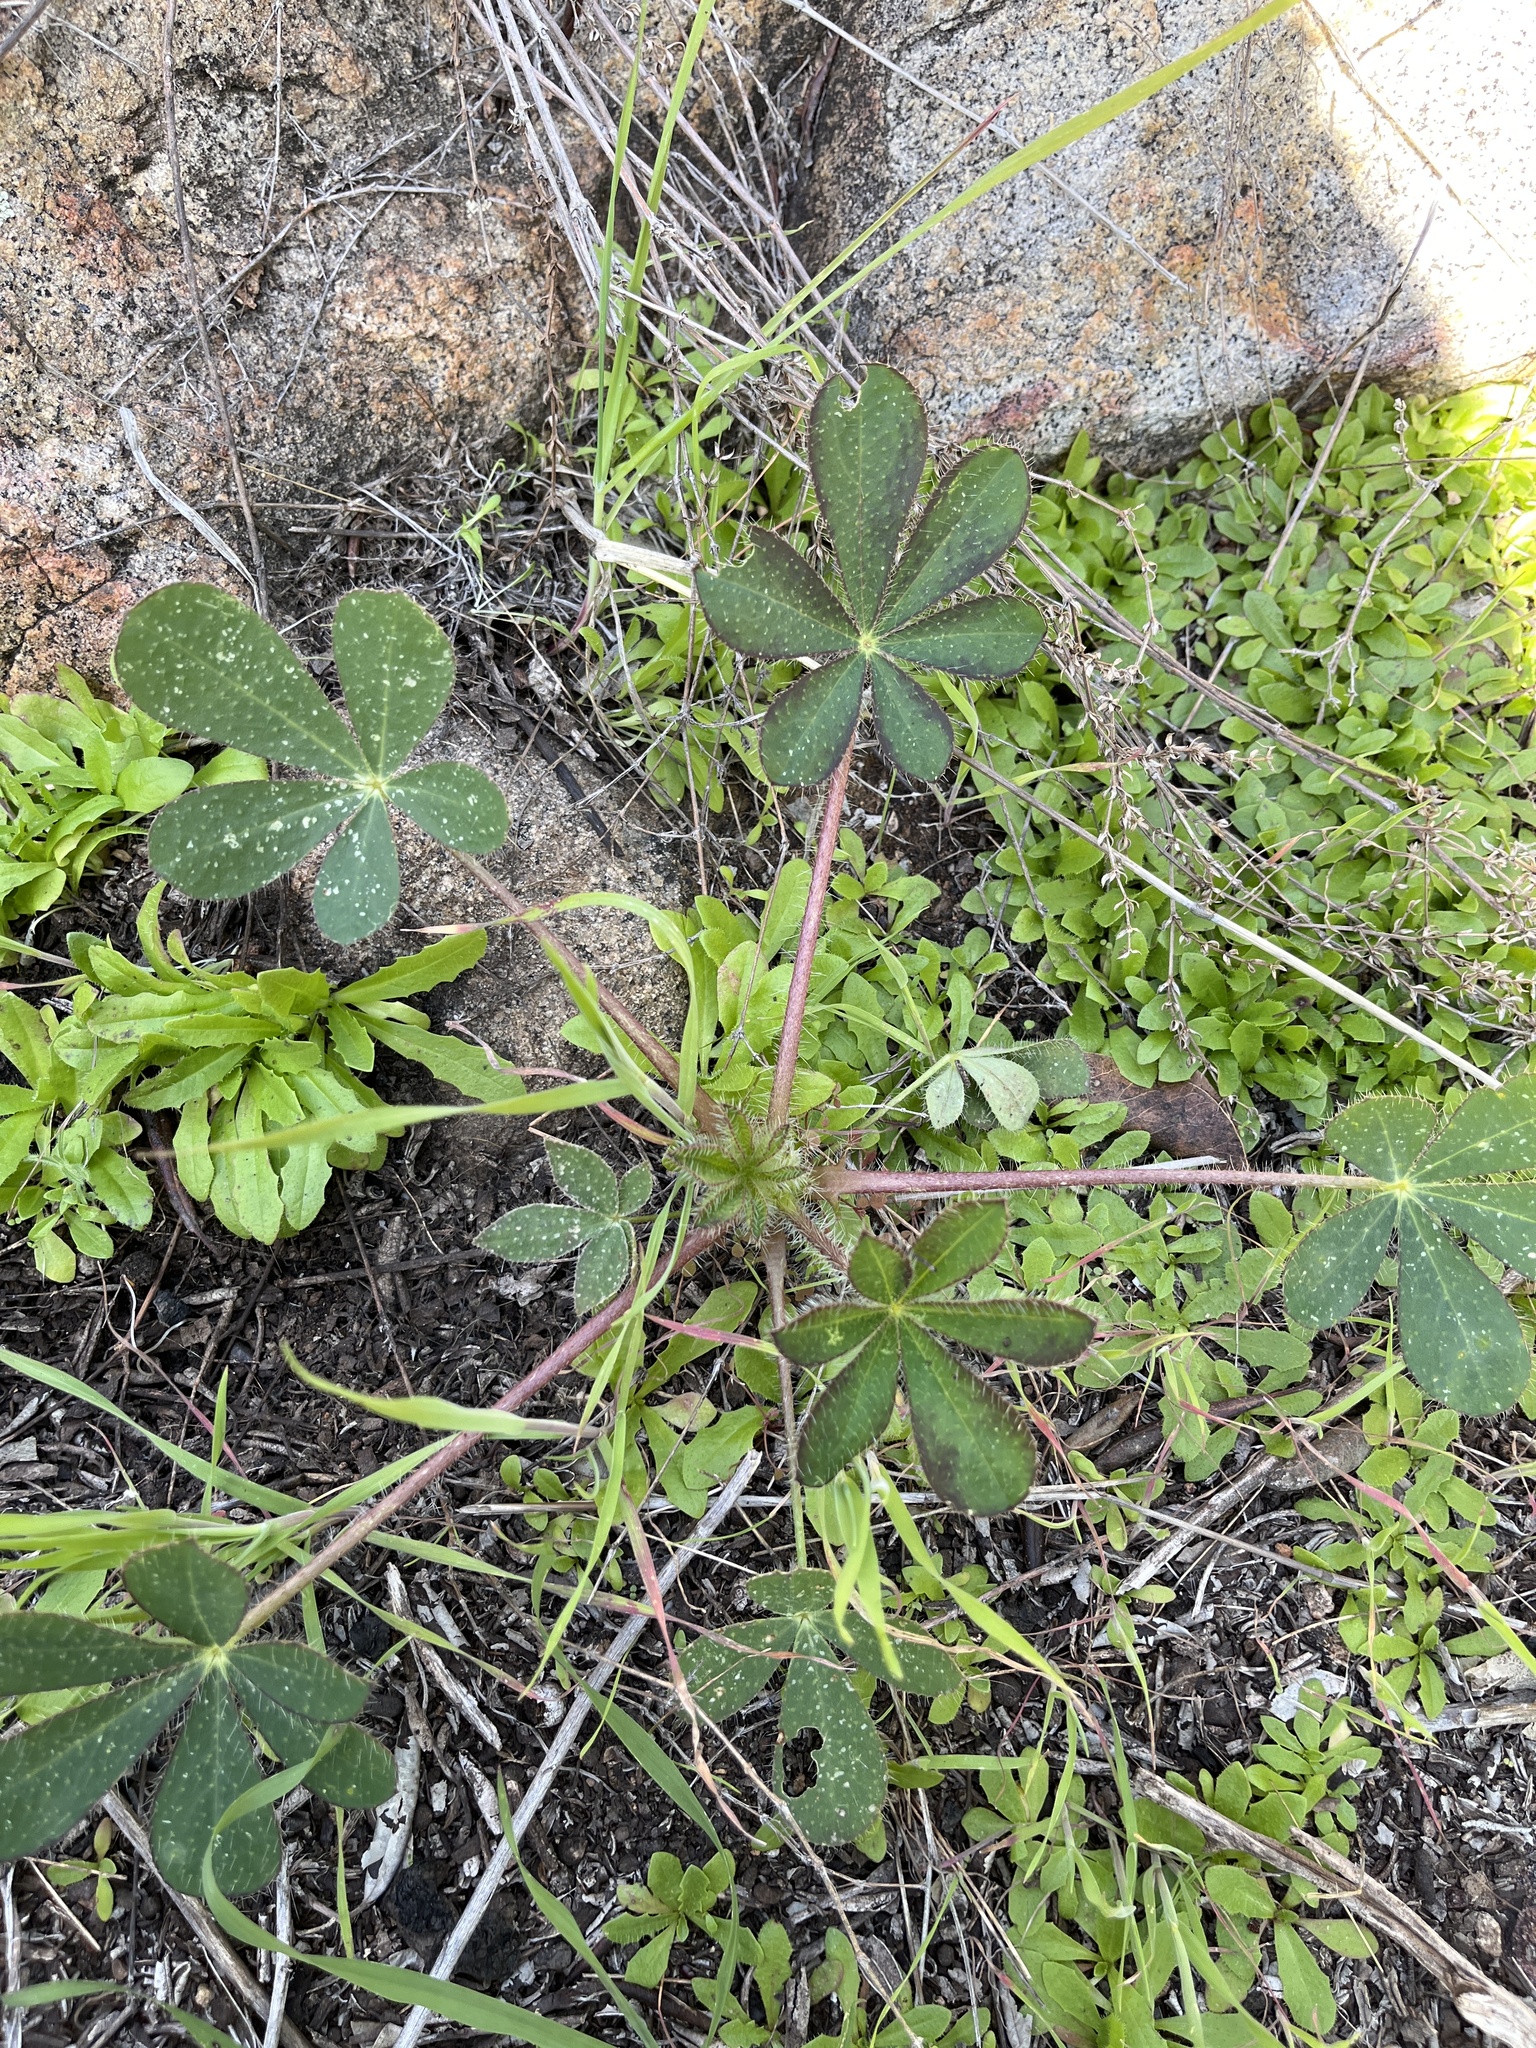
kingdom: Plantae
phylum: Tracheophyta
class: Magnoliopsida
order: Fabales
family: Fabaceae
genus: Lupinus
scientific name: Lupinus hirsutissimus
